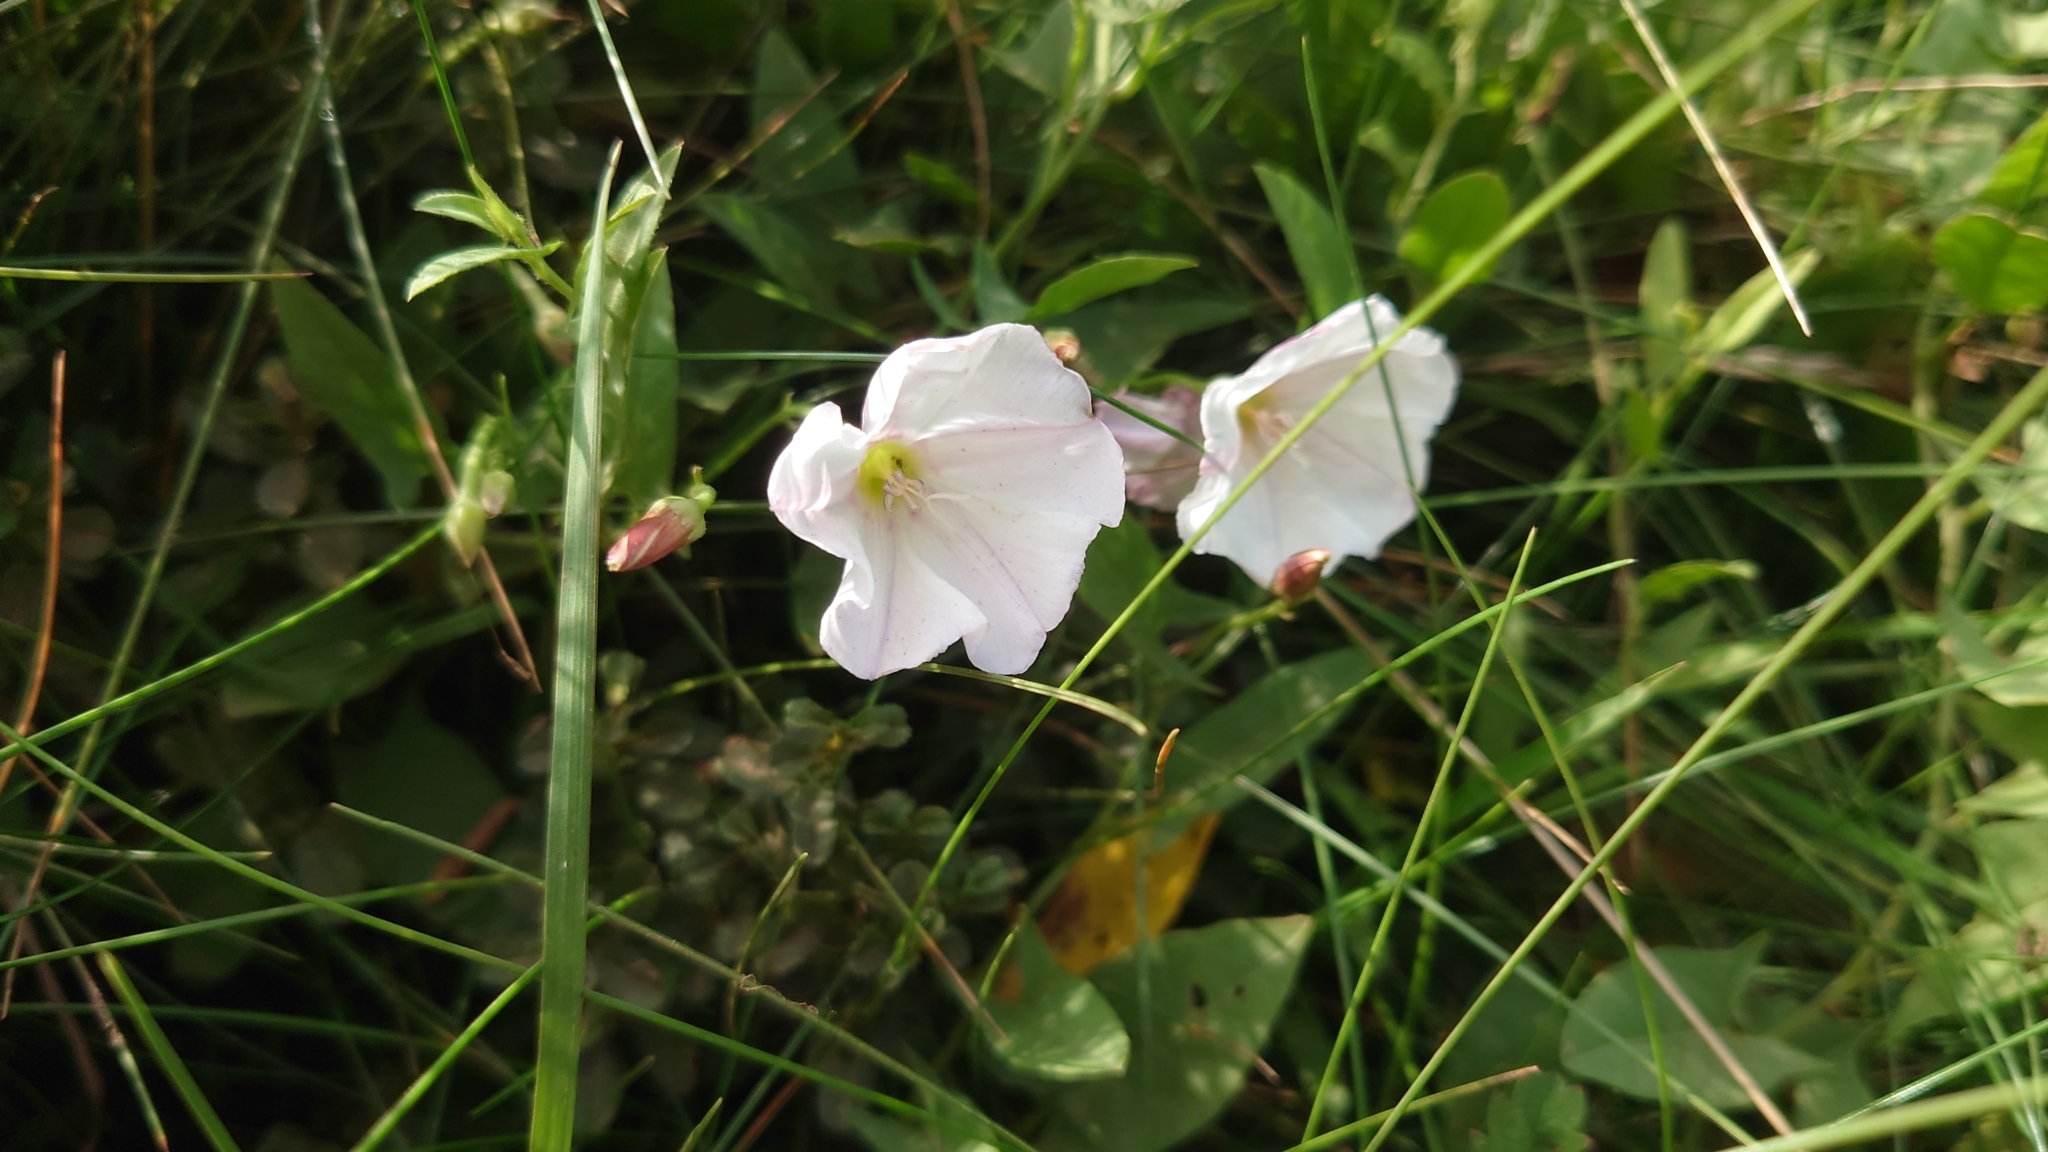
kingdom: Plantae
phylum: Tracheophyta
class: Magnoliopsida
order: Solanales
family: Convolvulaceae
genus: Convolvulus
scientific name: Convolvulus arvensis
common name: Field bindweed
